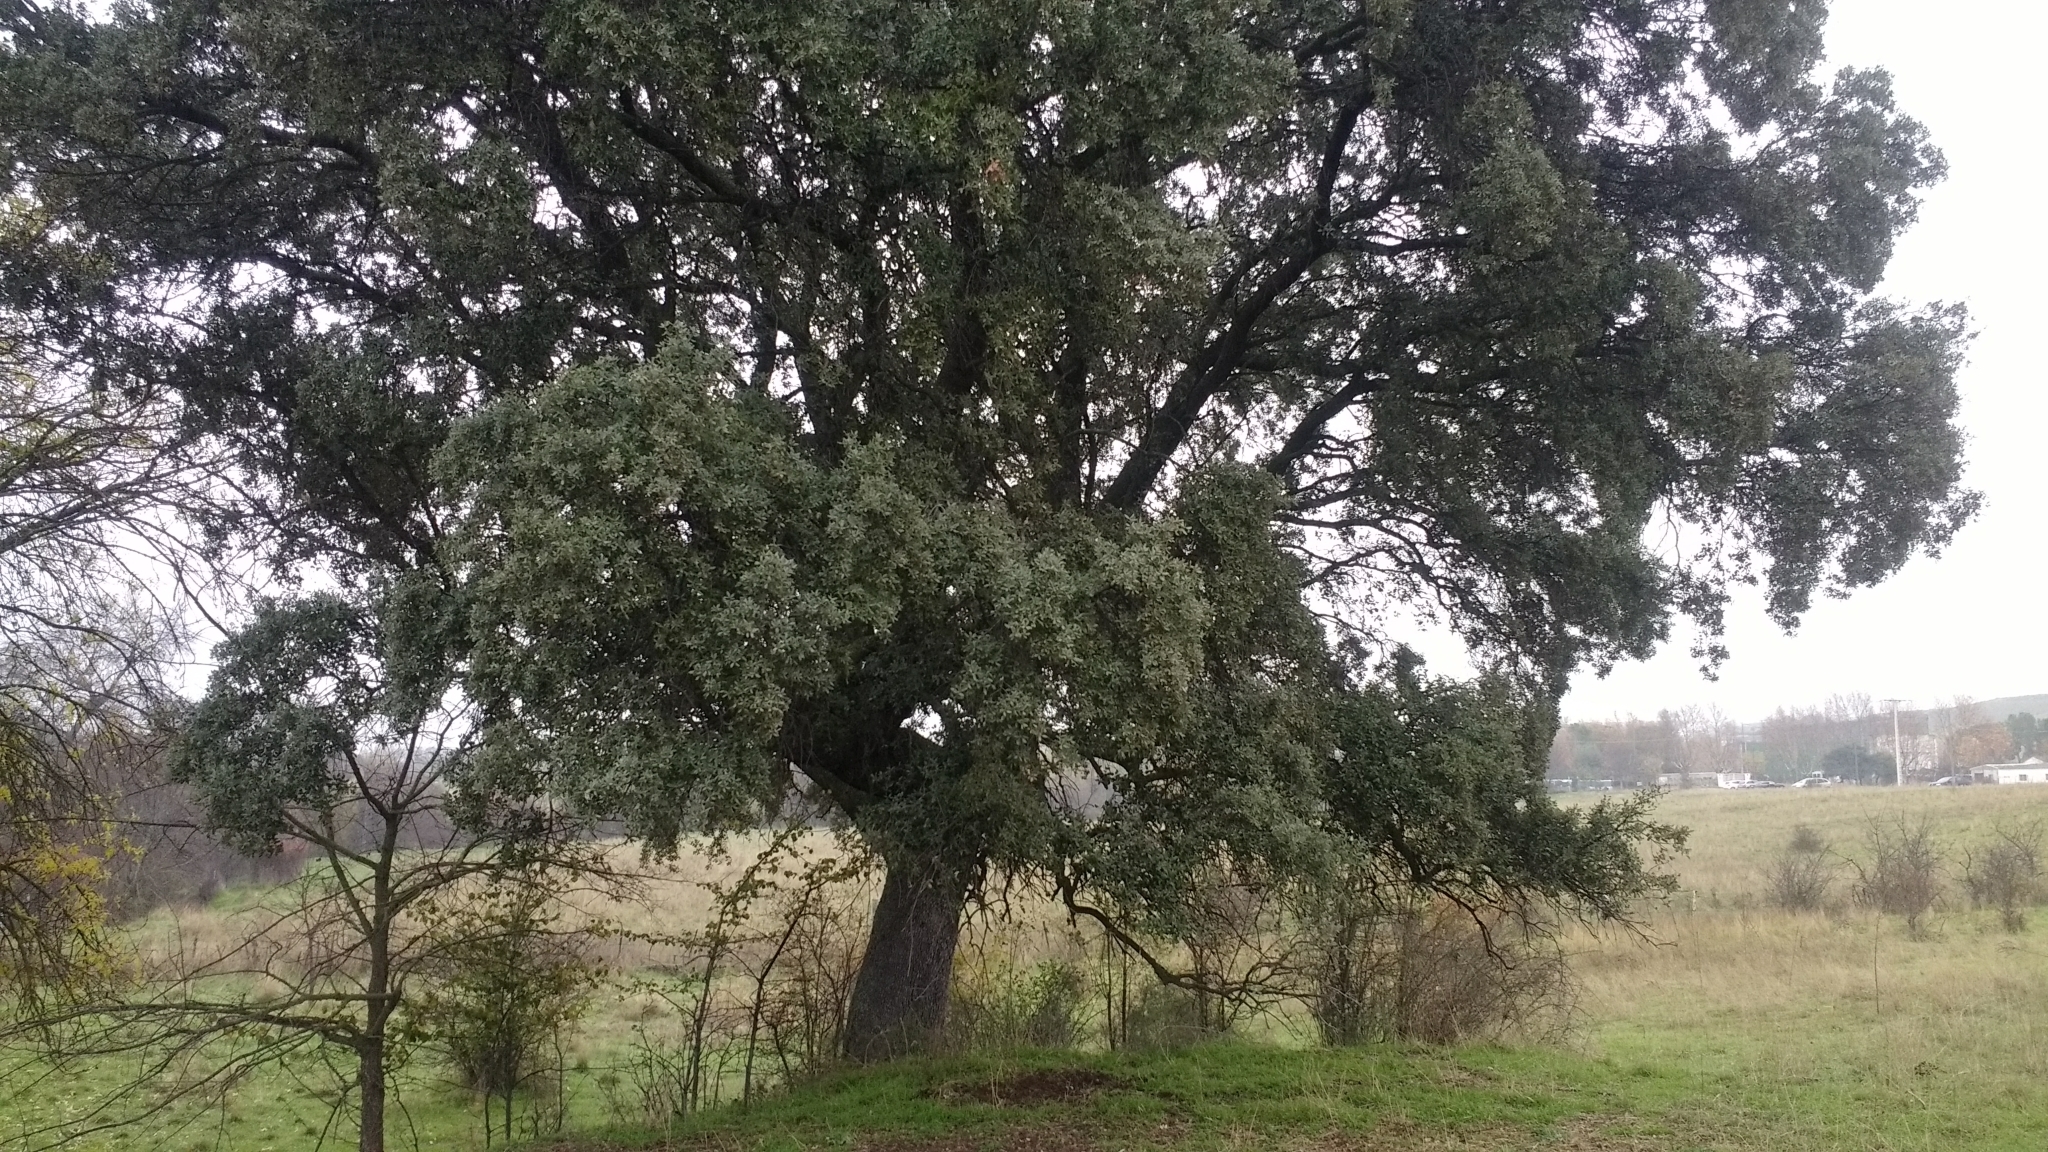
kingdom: Plantae
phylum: Tracheophyta
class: Magnoliopsida
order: Fagales
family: Fagaceae
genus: Quercus
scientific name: Quercus rotundifolia
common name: Holm oak
